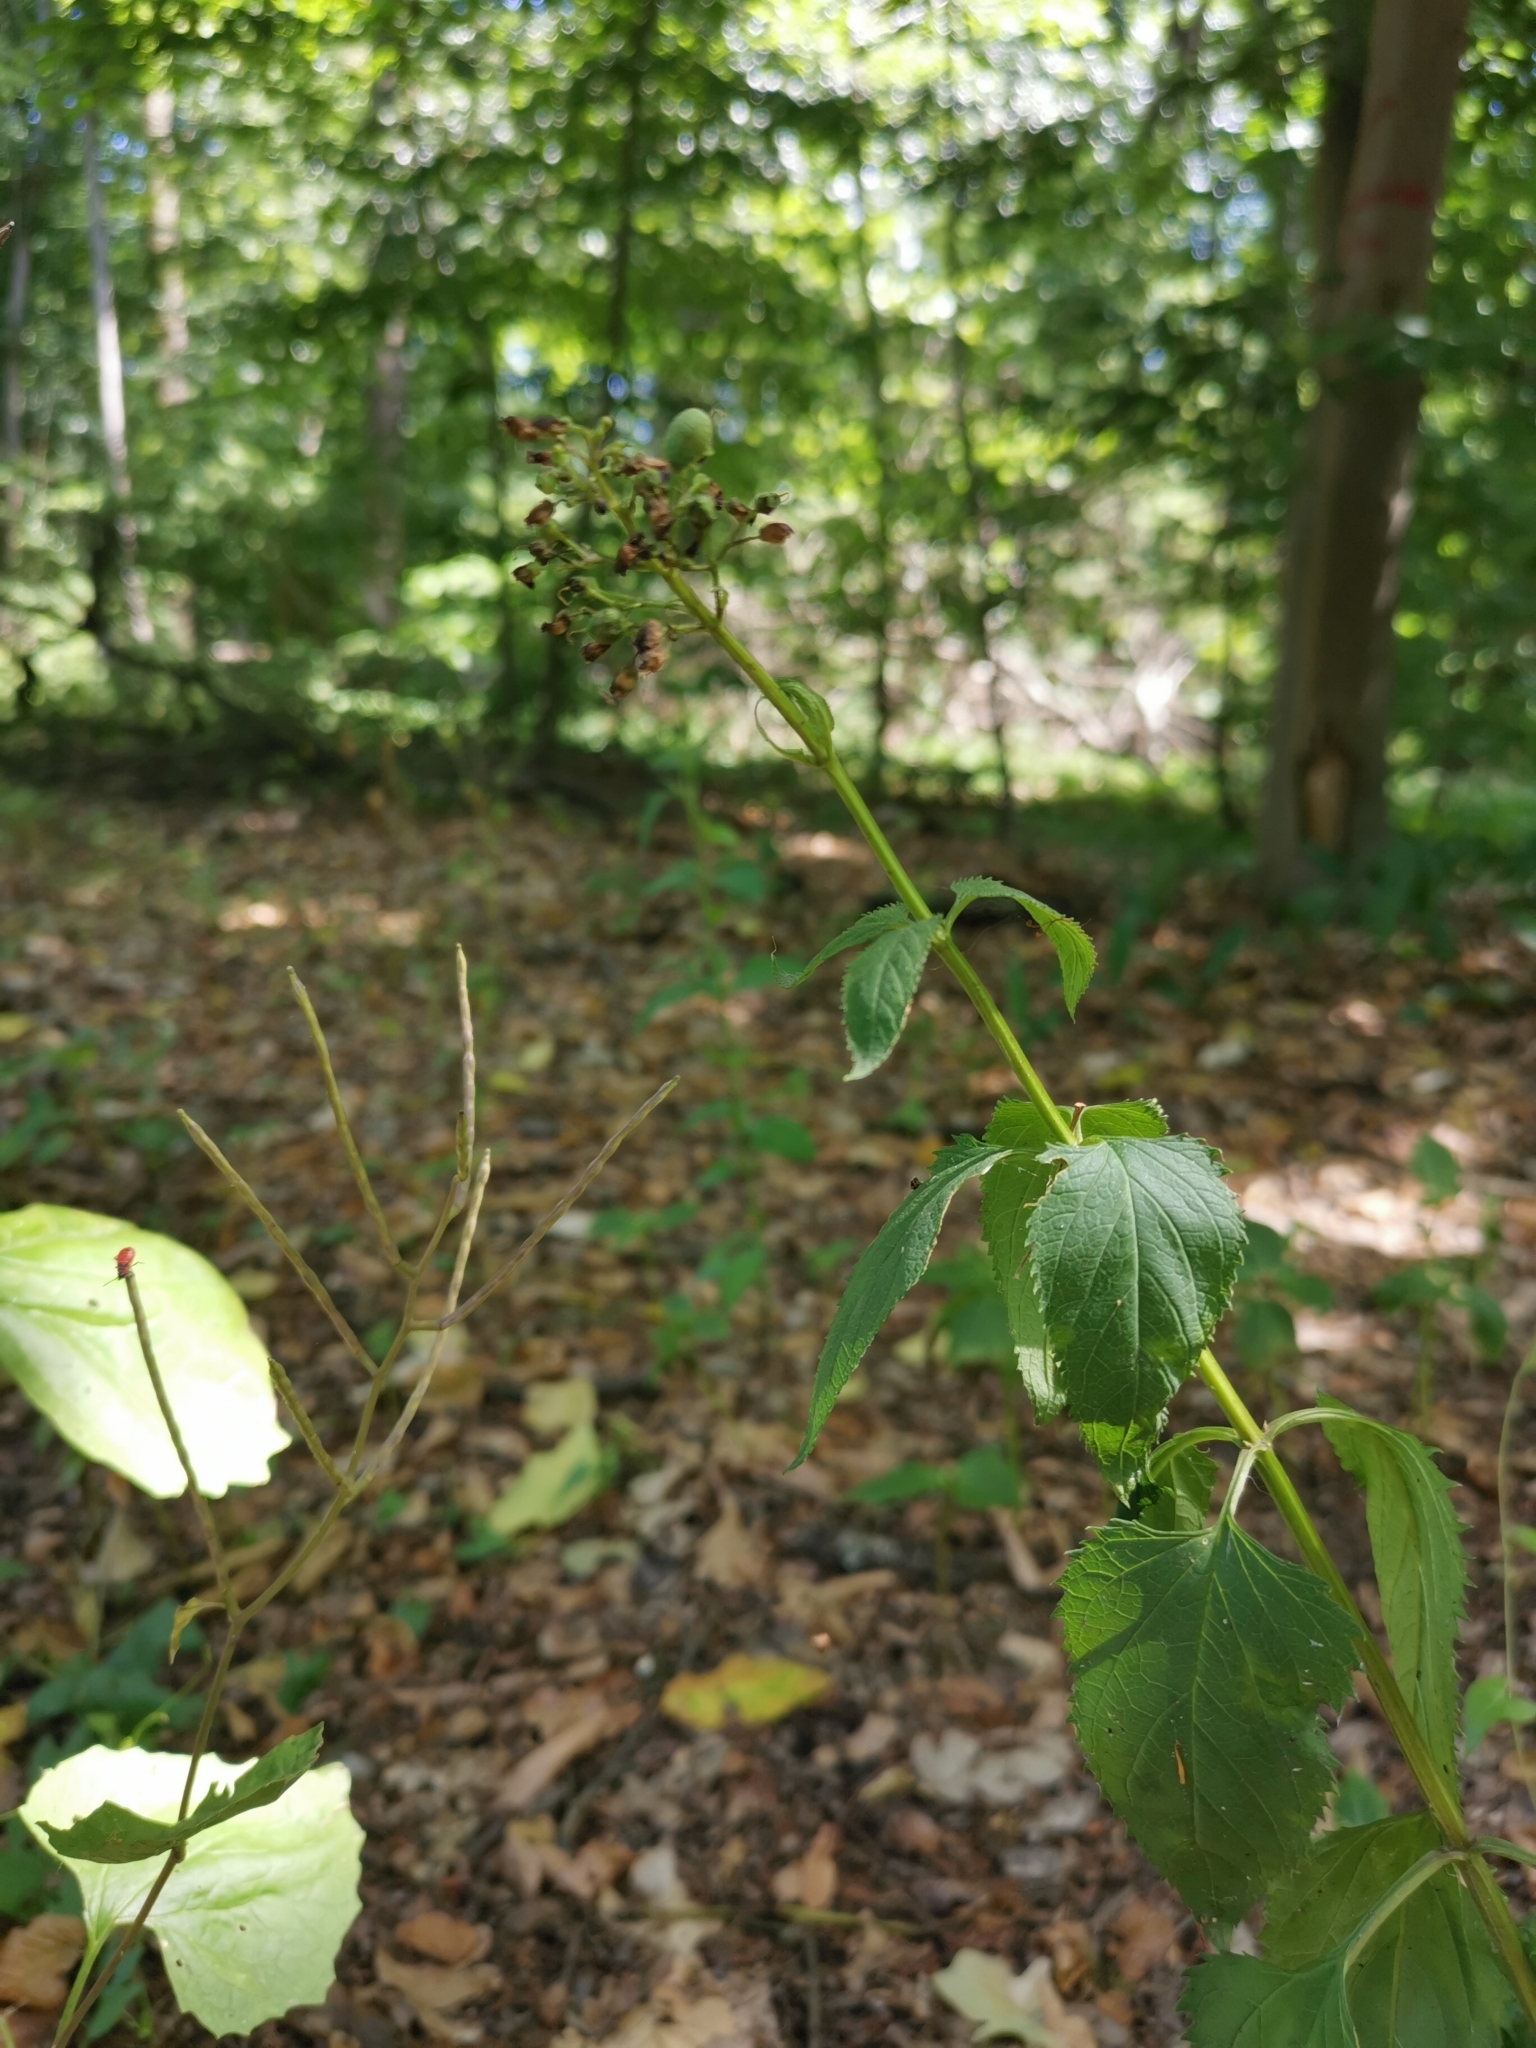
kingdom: Plantae
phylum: Tracheophyta
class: Magnoliopsida
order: Lamiales
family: Scrophulariaceae
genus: Scrophularia
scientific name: Scrophularia nodosa
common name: Common figwort
